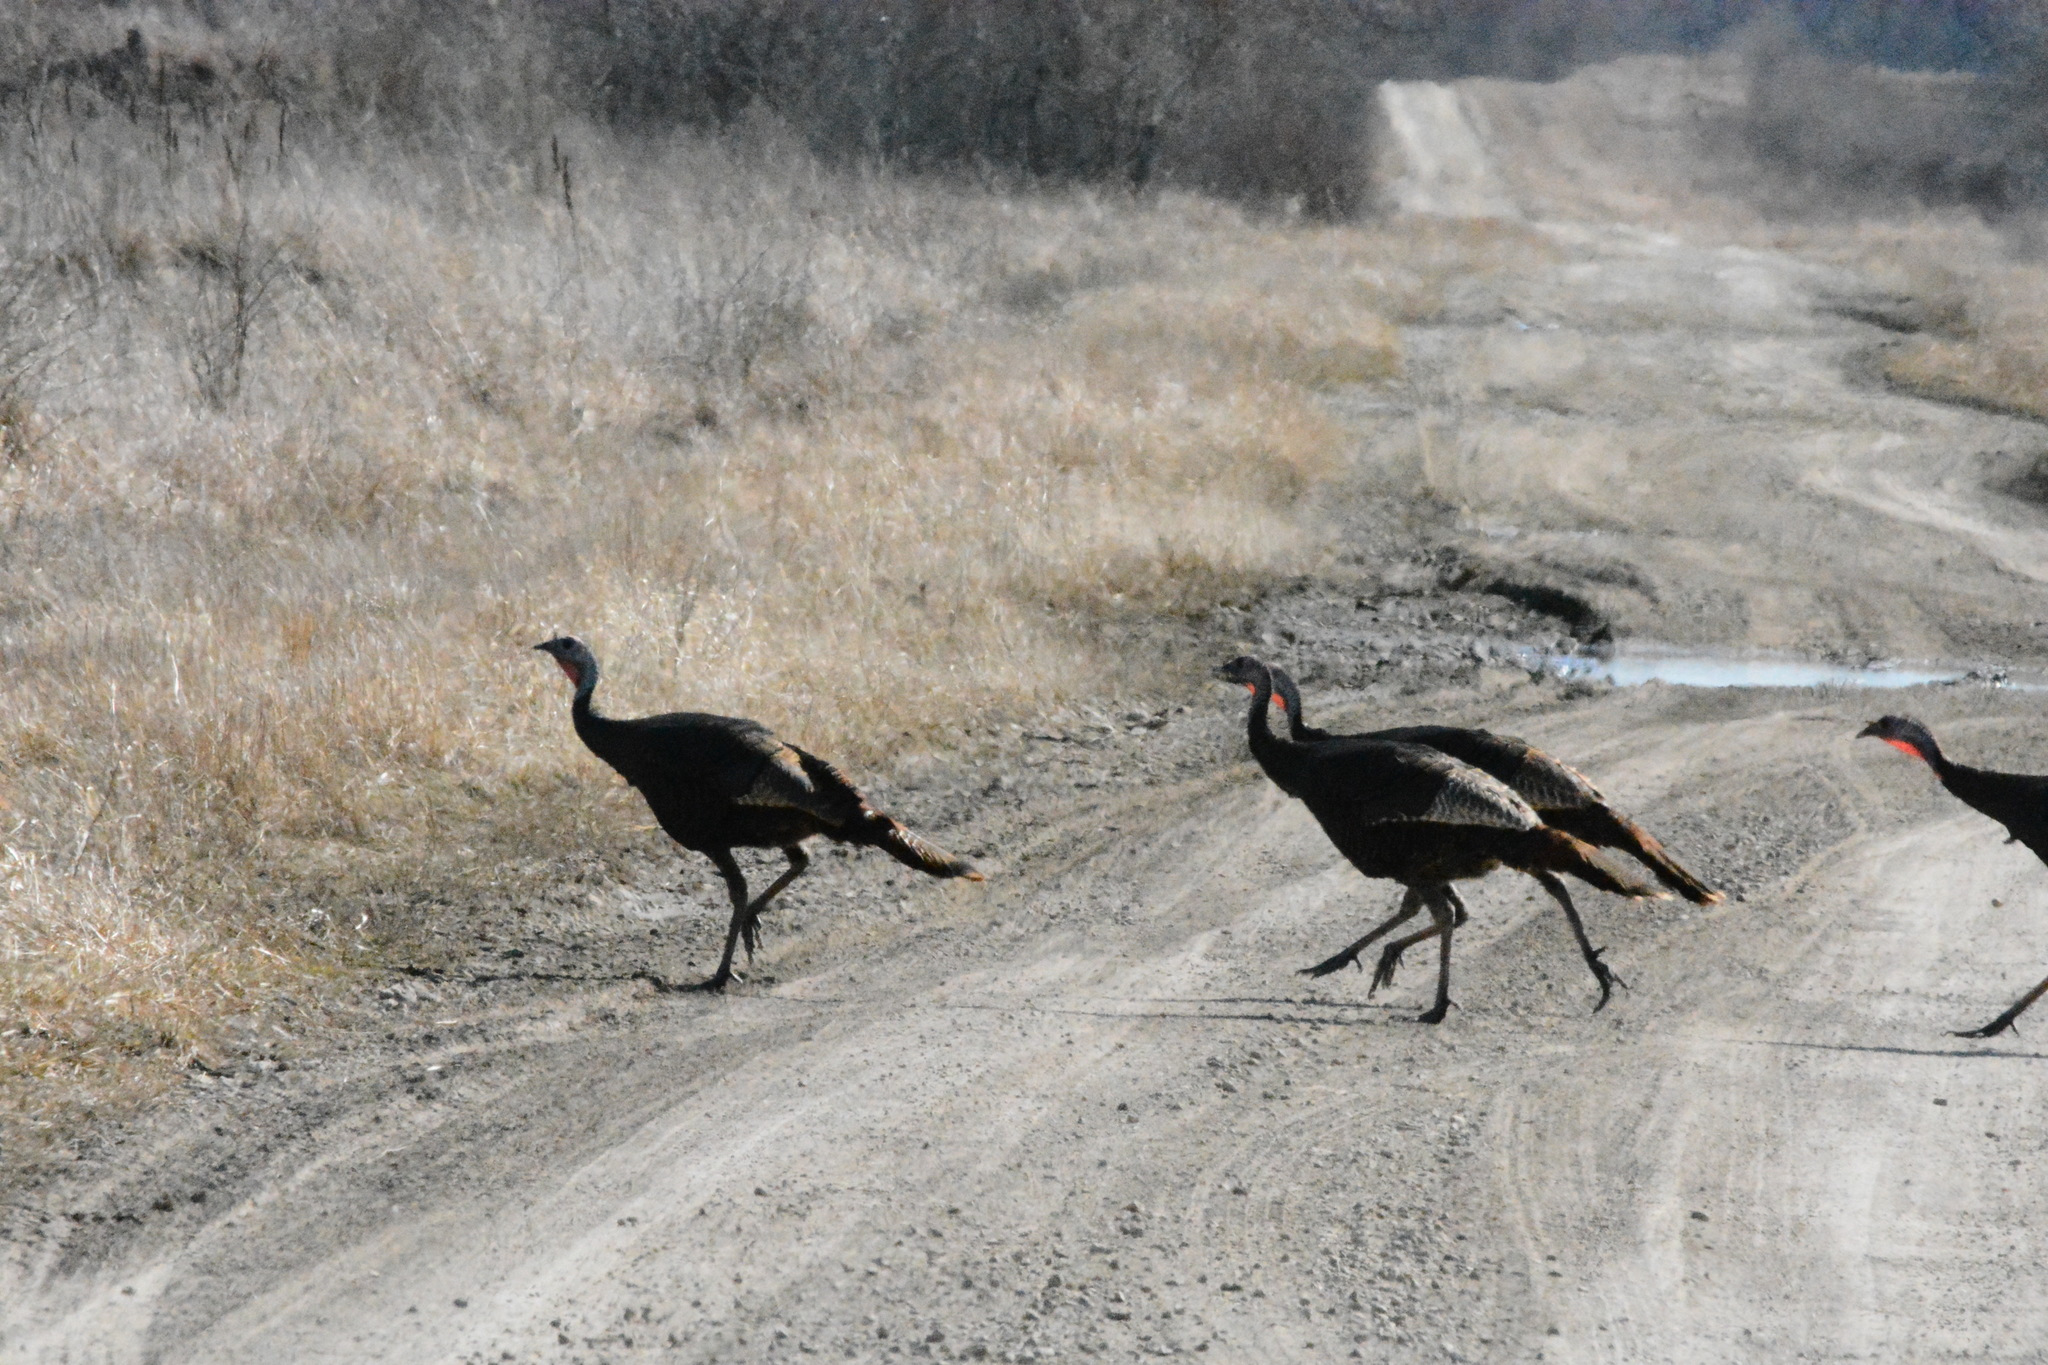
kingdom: Animalia
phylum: Chordata
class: Aves
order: Galliformes
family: Phasianidae
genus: Meleagris
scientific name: Meleagris gallopavo
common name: Wild turkey
